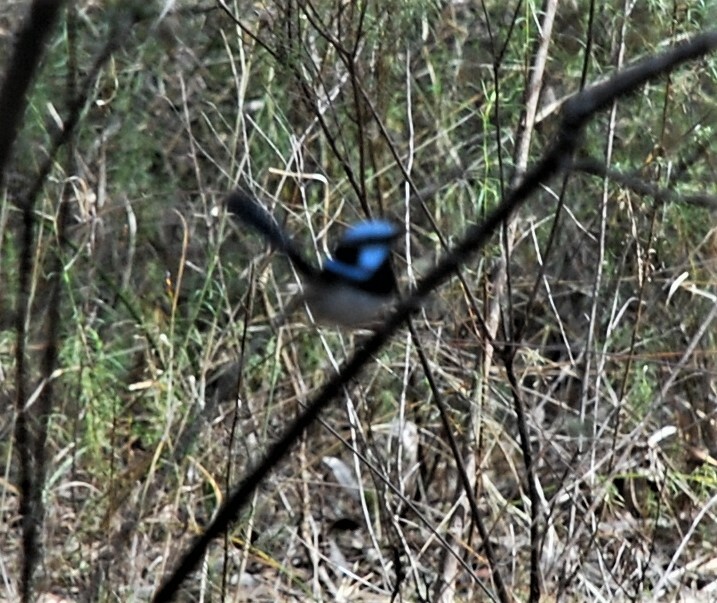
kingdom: Animalia
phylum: Chordata
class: Aves
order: Passeriformes
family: Maluridae
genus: Malurus
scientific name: Malurus cyaneus
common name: Superb fairywren
